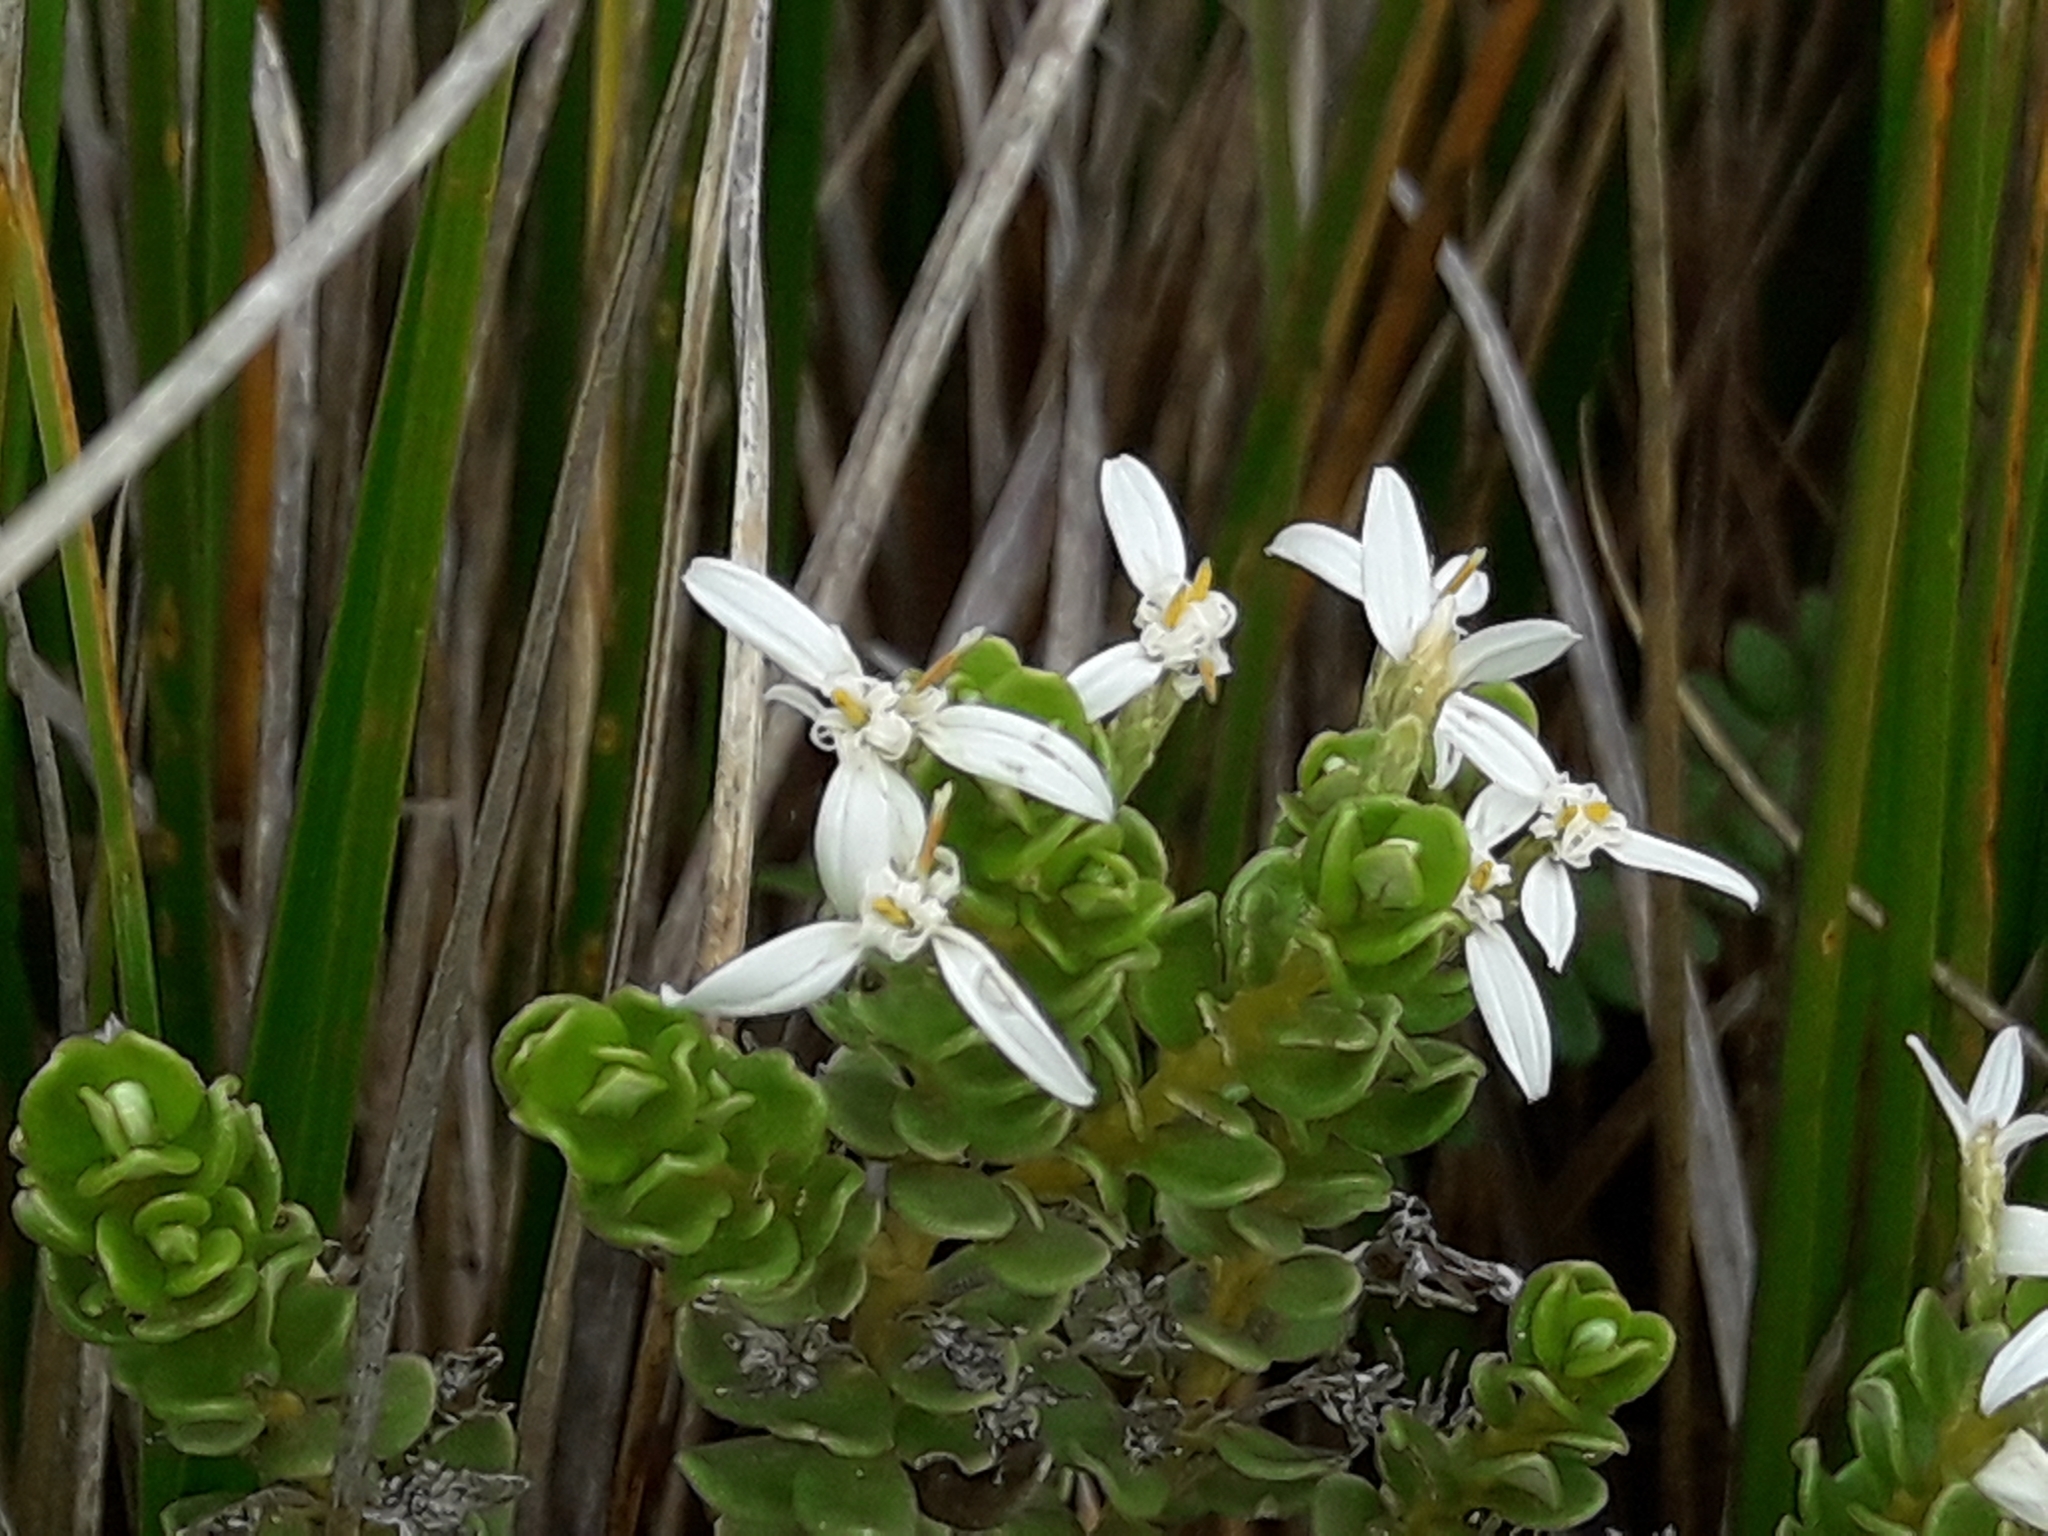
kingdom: Plantae
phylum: Tracheophyta
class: Magnoliopsida
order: Asterales
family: Asteraceae
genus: Olearia
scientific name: Olearia nummularifolia
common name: Sticky daisybush
